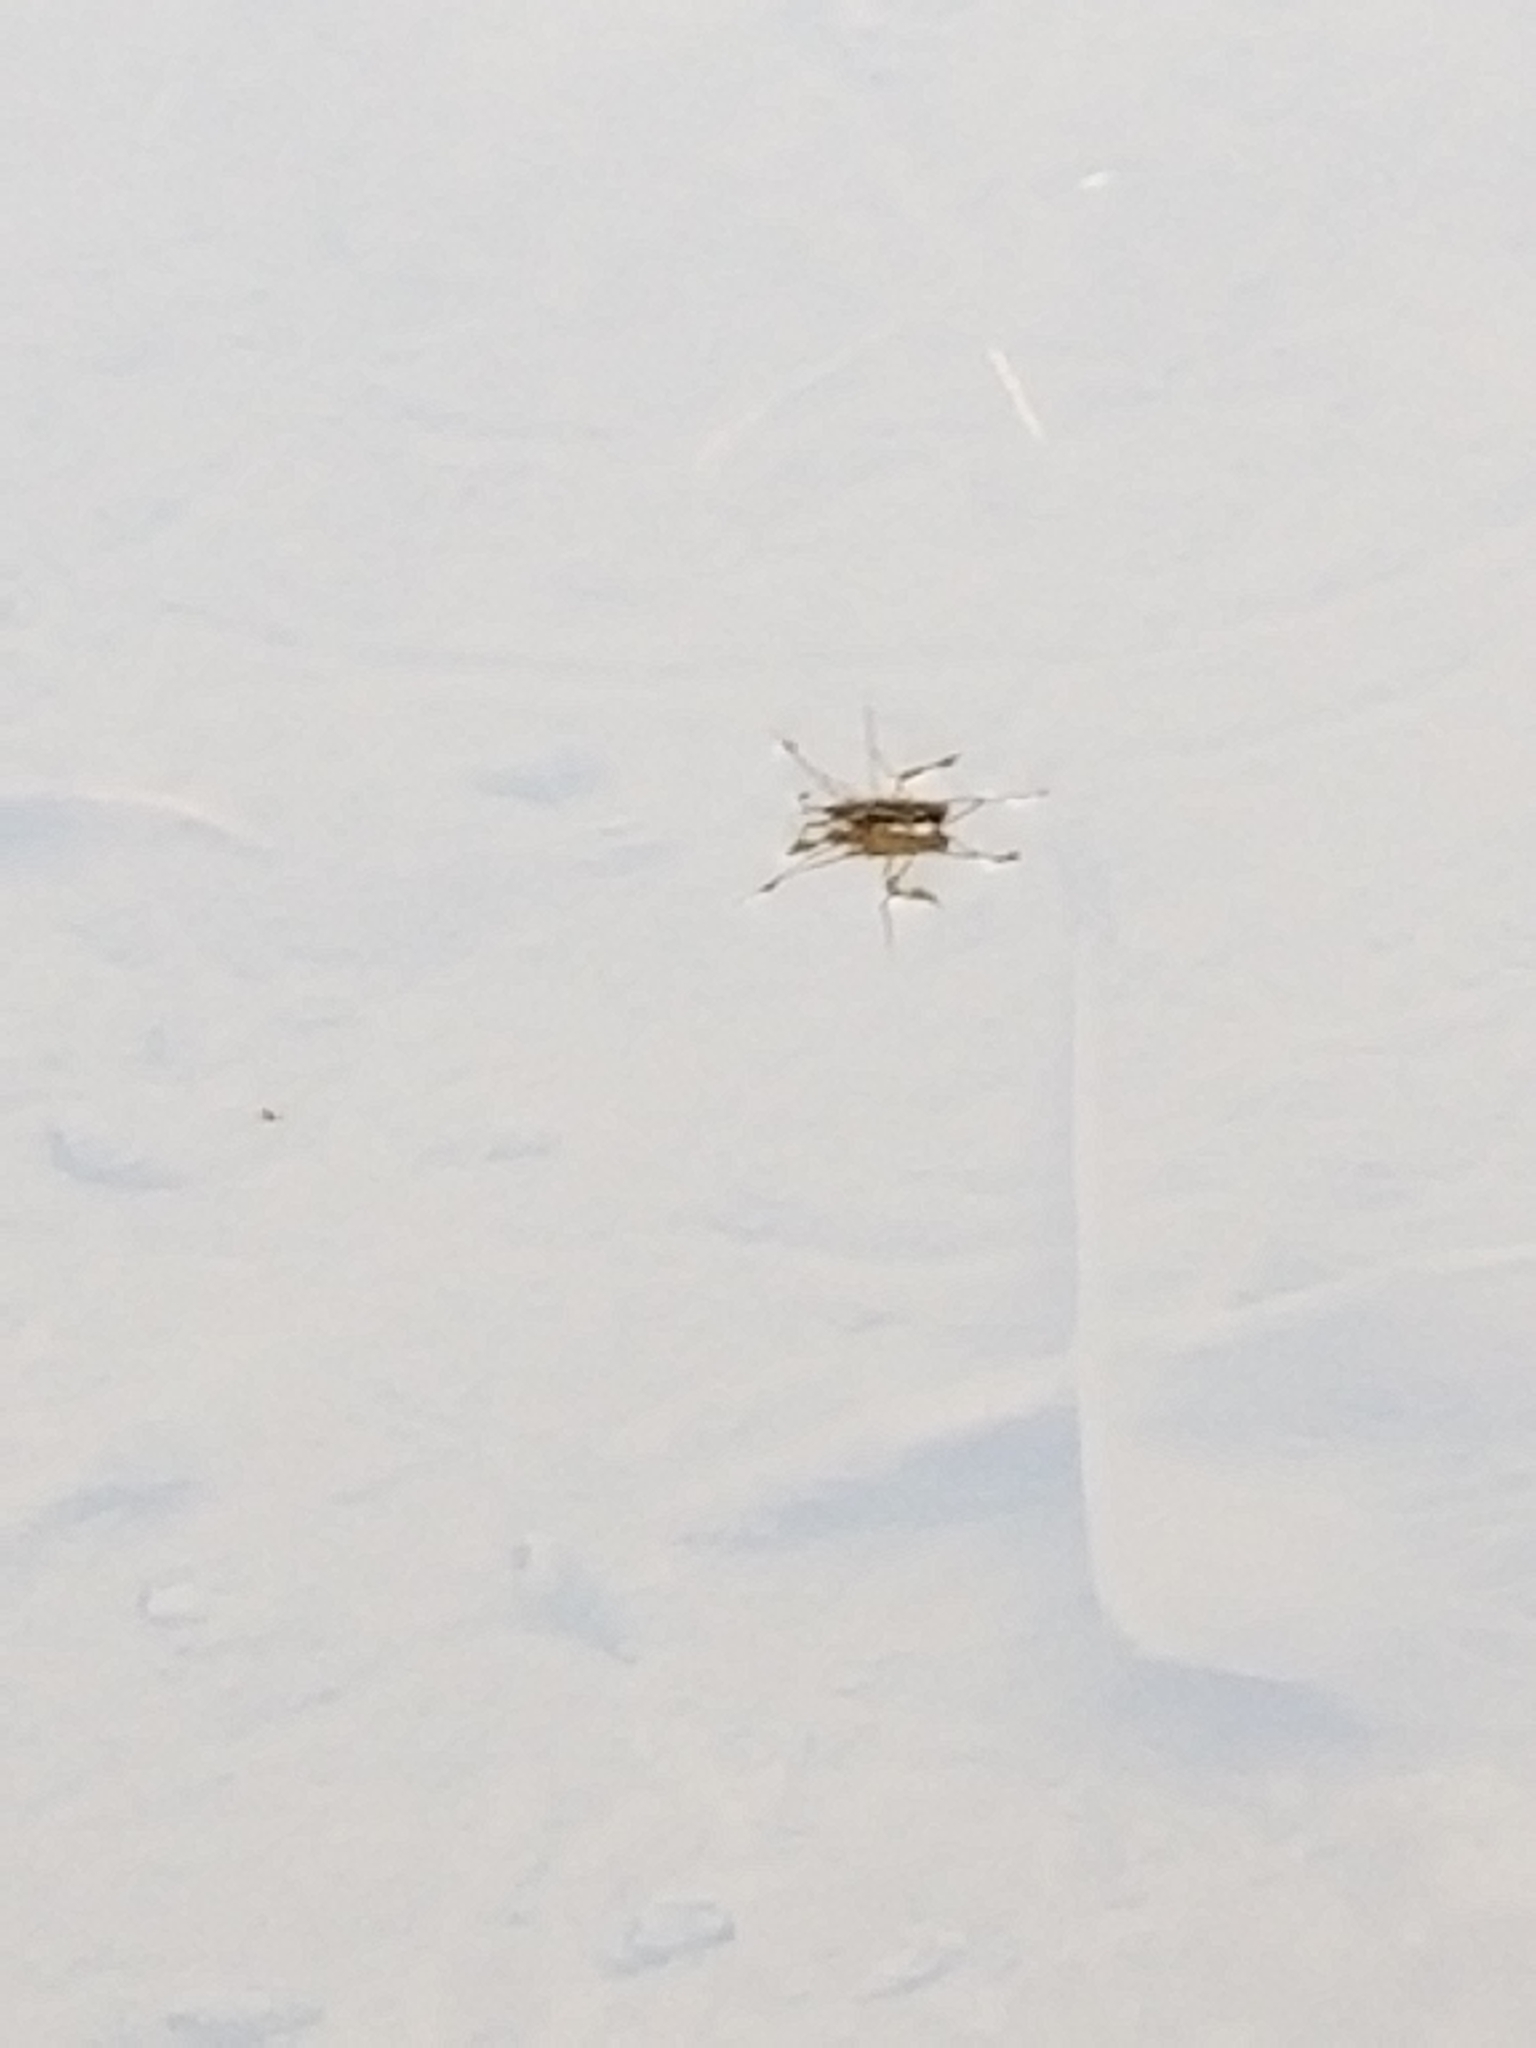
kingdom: Animalia
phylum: Arthropoda
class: Insecta
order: Hemiptera
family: Gerridae
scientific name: Gerridae
